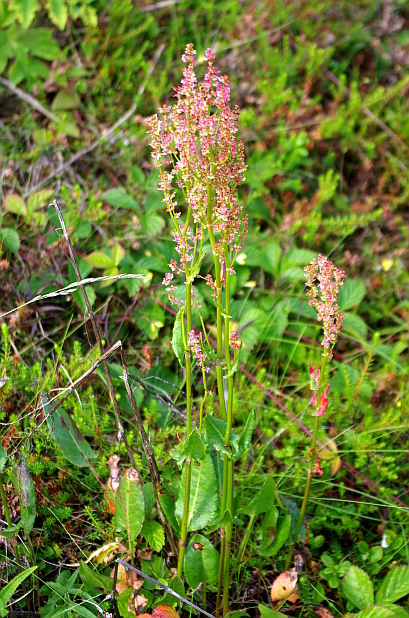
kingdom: Plantae
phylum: Tracheophyta
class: Magnoliopsida
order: Caryophyllales
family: Polygonaceae
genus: Rumex
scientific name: Rumex thyrsiflorus
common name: Garden sorrel
